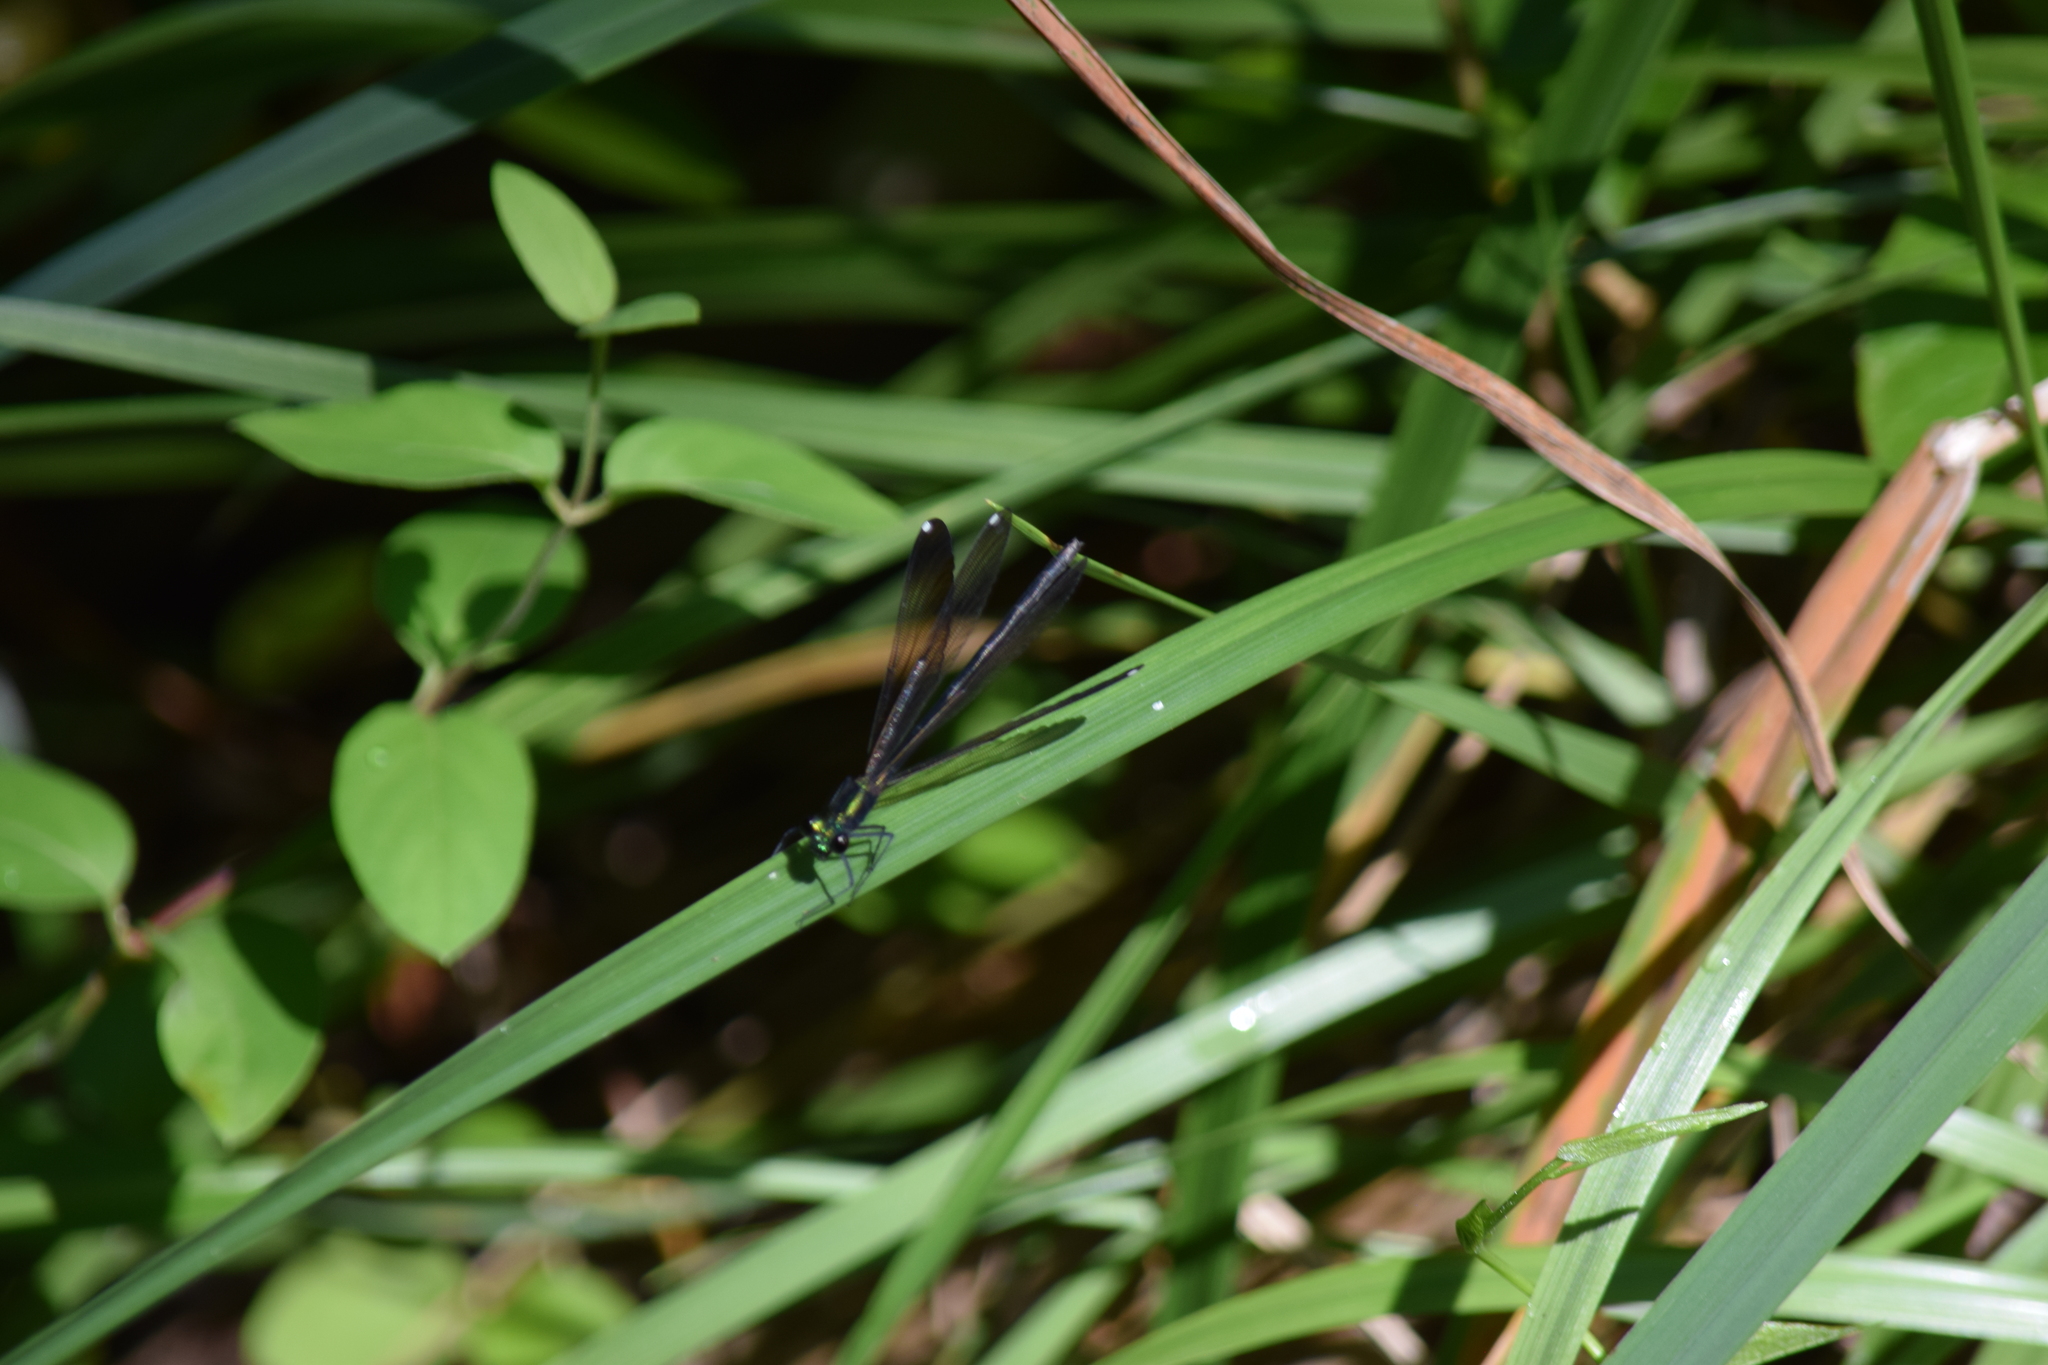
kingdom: Animalia
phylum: Arthropoda
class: Insecta
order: Odonata
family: Calopterygidae
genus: Calopteryx
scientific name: Calopteryx maculata
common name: Ebony jewelwing
